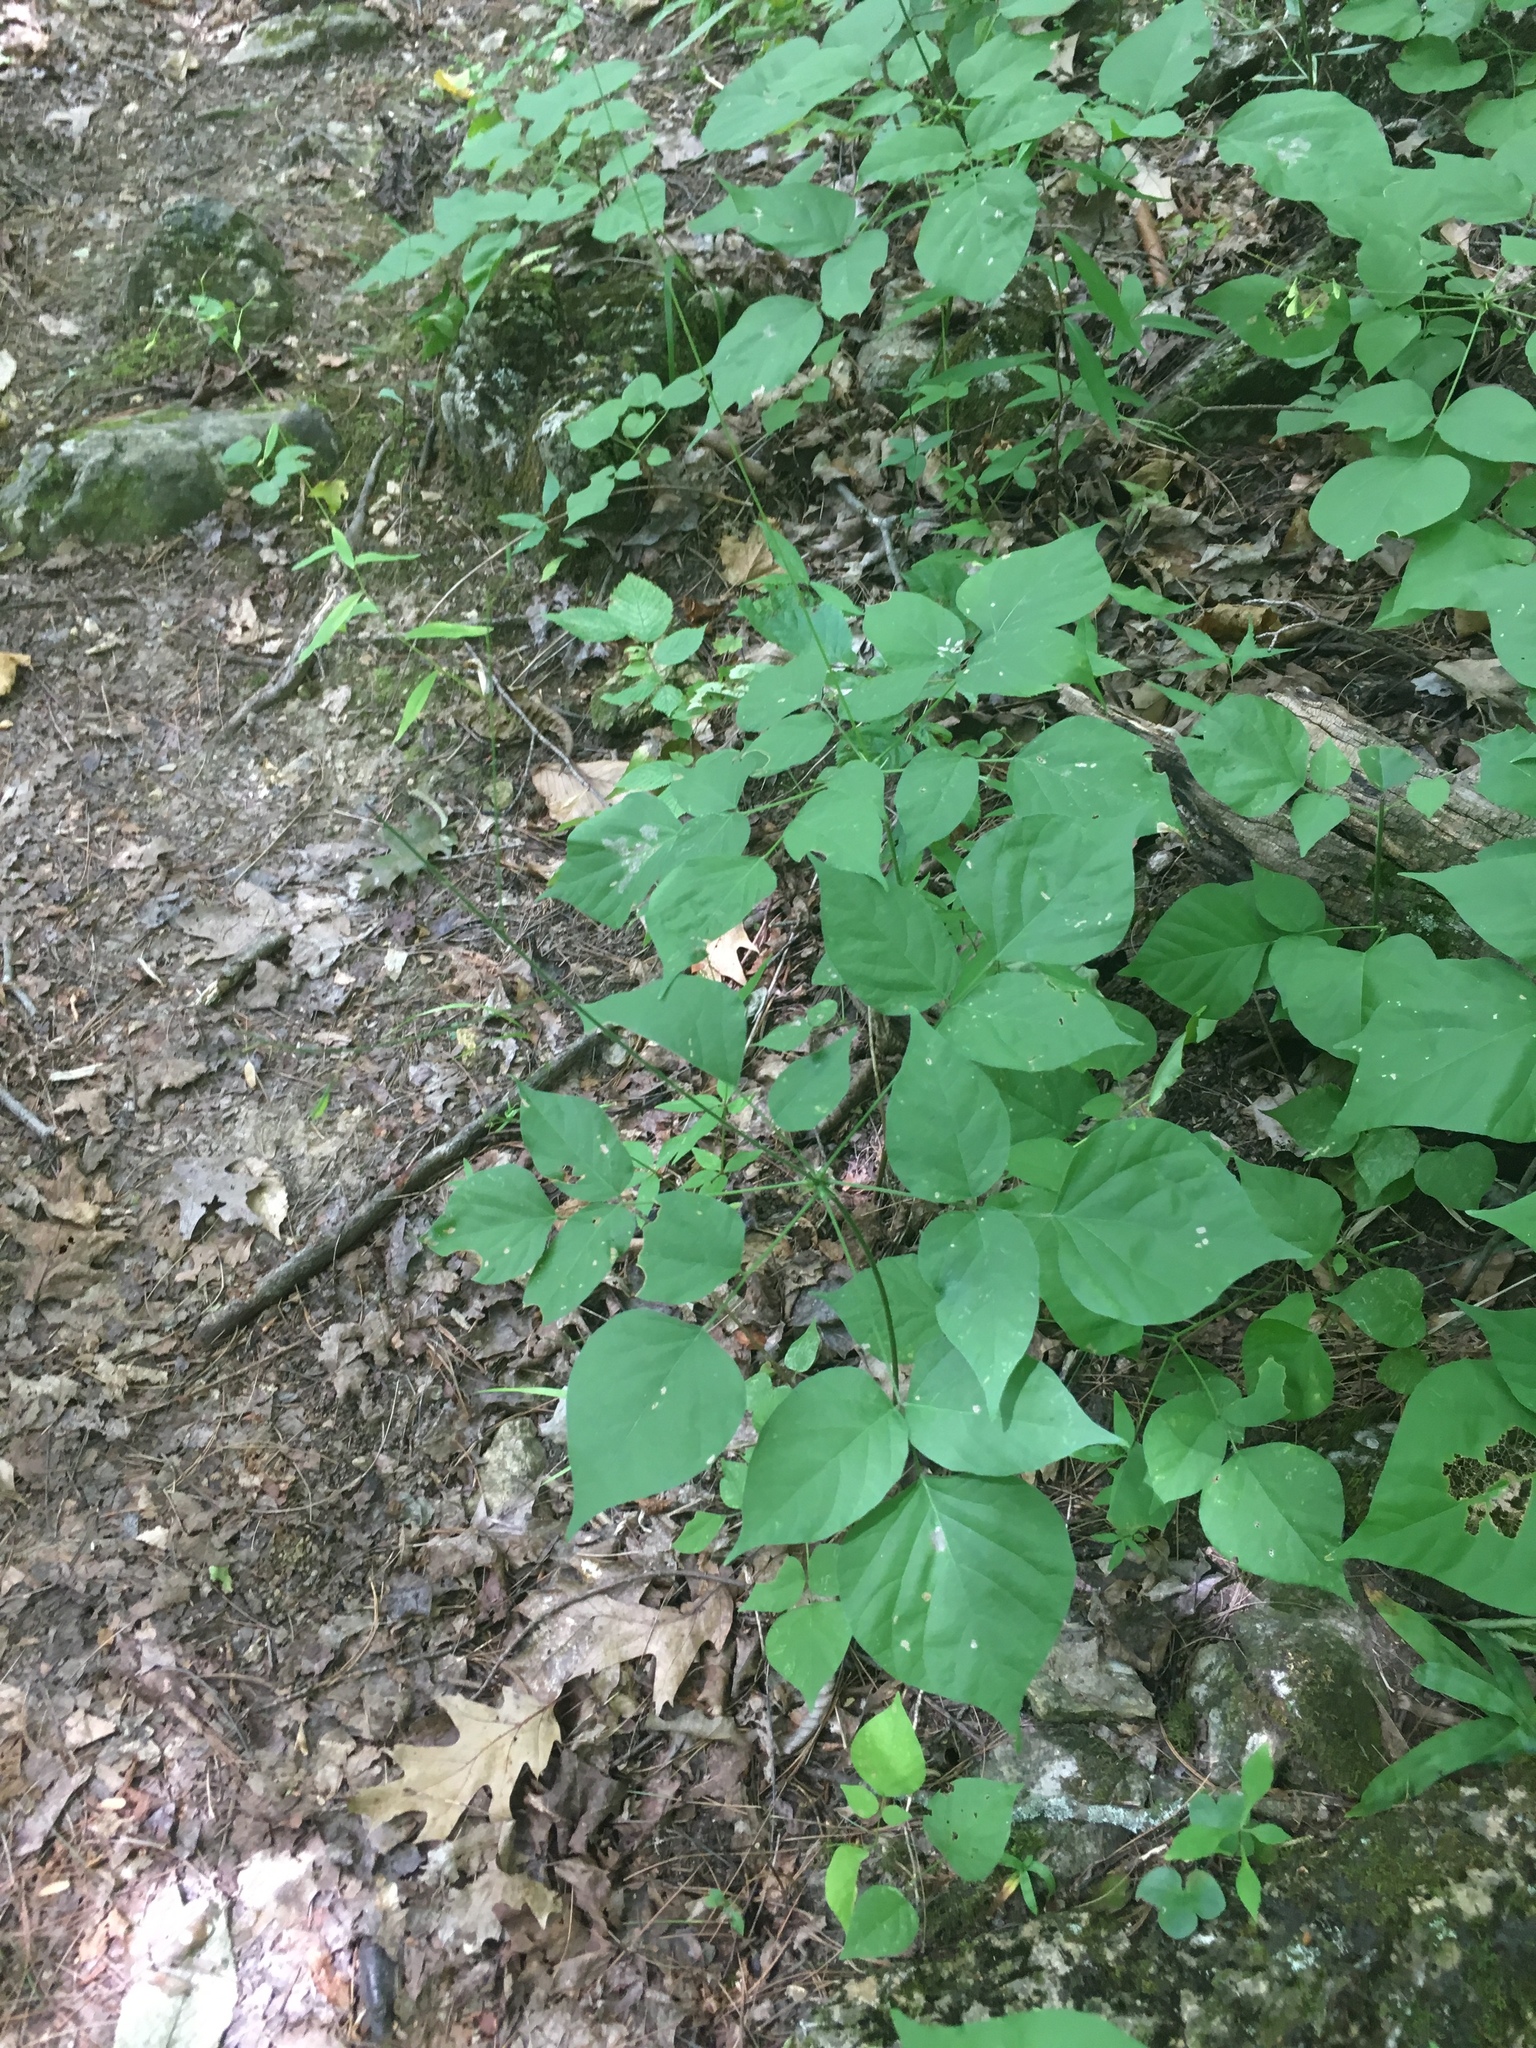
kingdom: Plantae
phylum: Tracheophyta
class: Magnoliopsida
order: Fabales
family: Fabaceae
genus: Hylodesmum
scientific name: Hylodesmum glutinosum
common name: Clustered-leaved tick-trefoil
